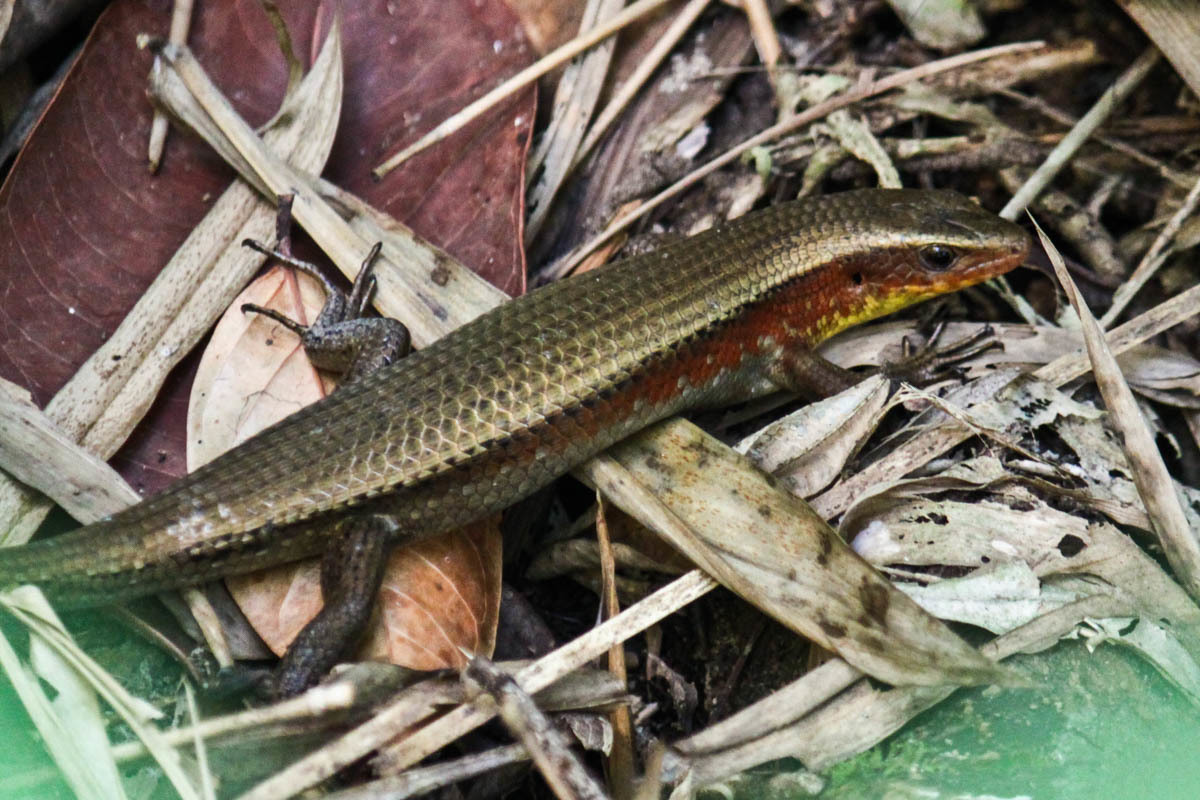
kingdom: Animalia
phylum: Chordata
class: Squamata
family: Scincidae
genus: Eutropis
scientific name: Eutropis multifasciata
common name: Common mabuya
